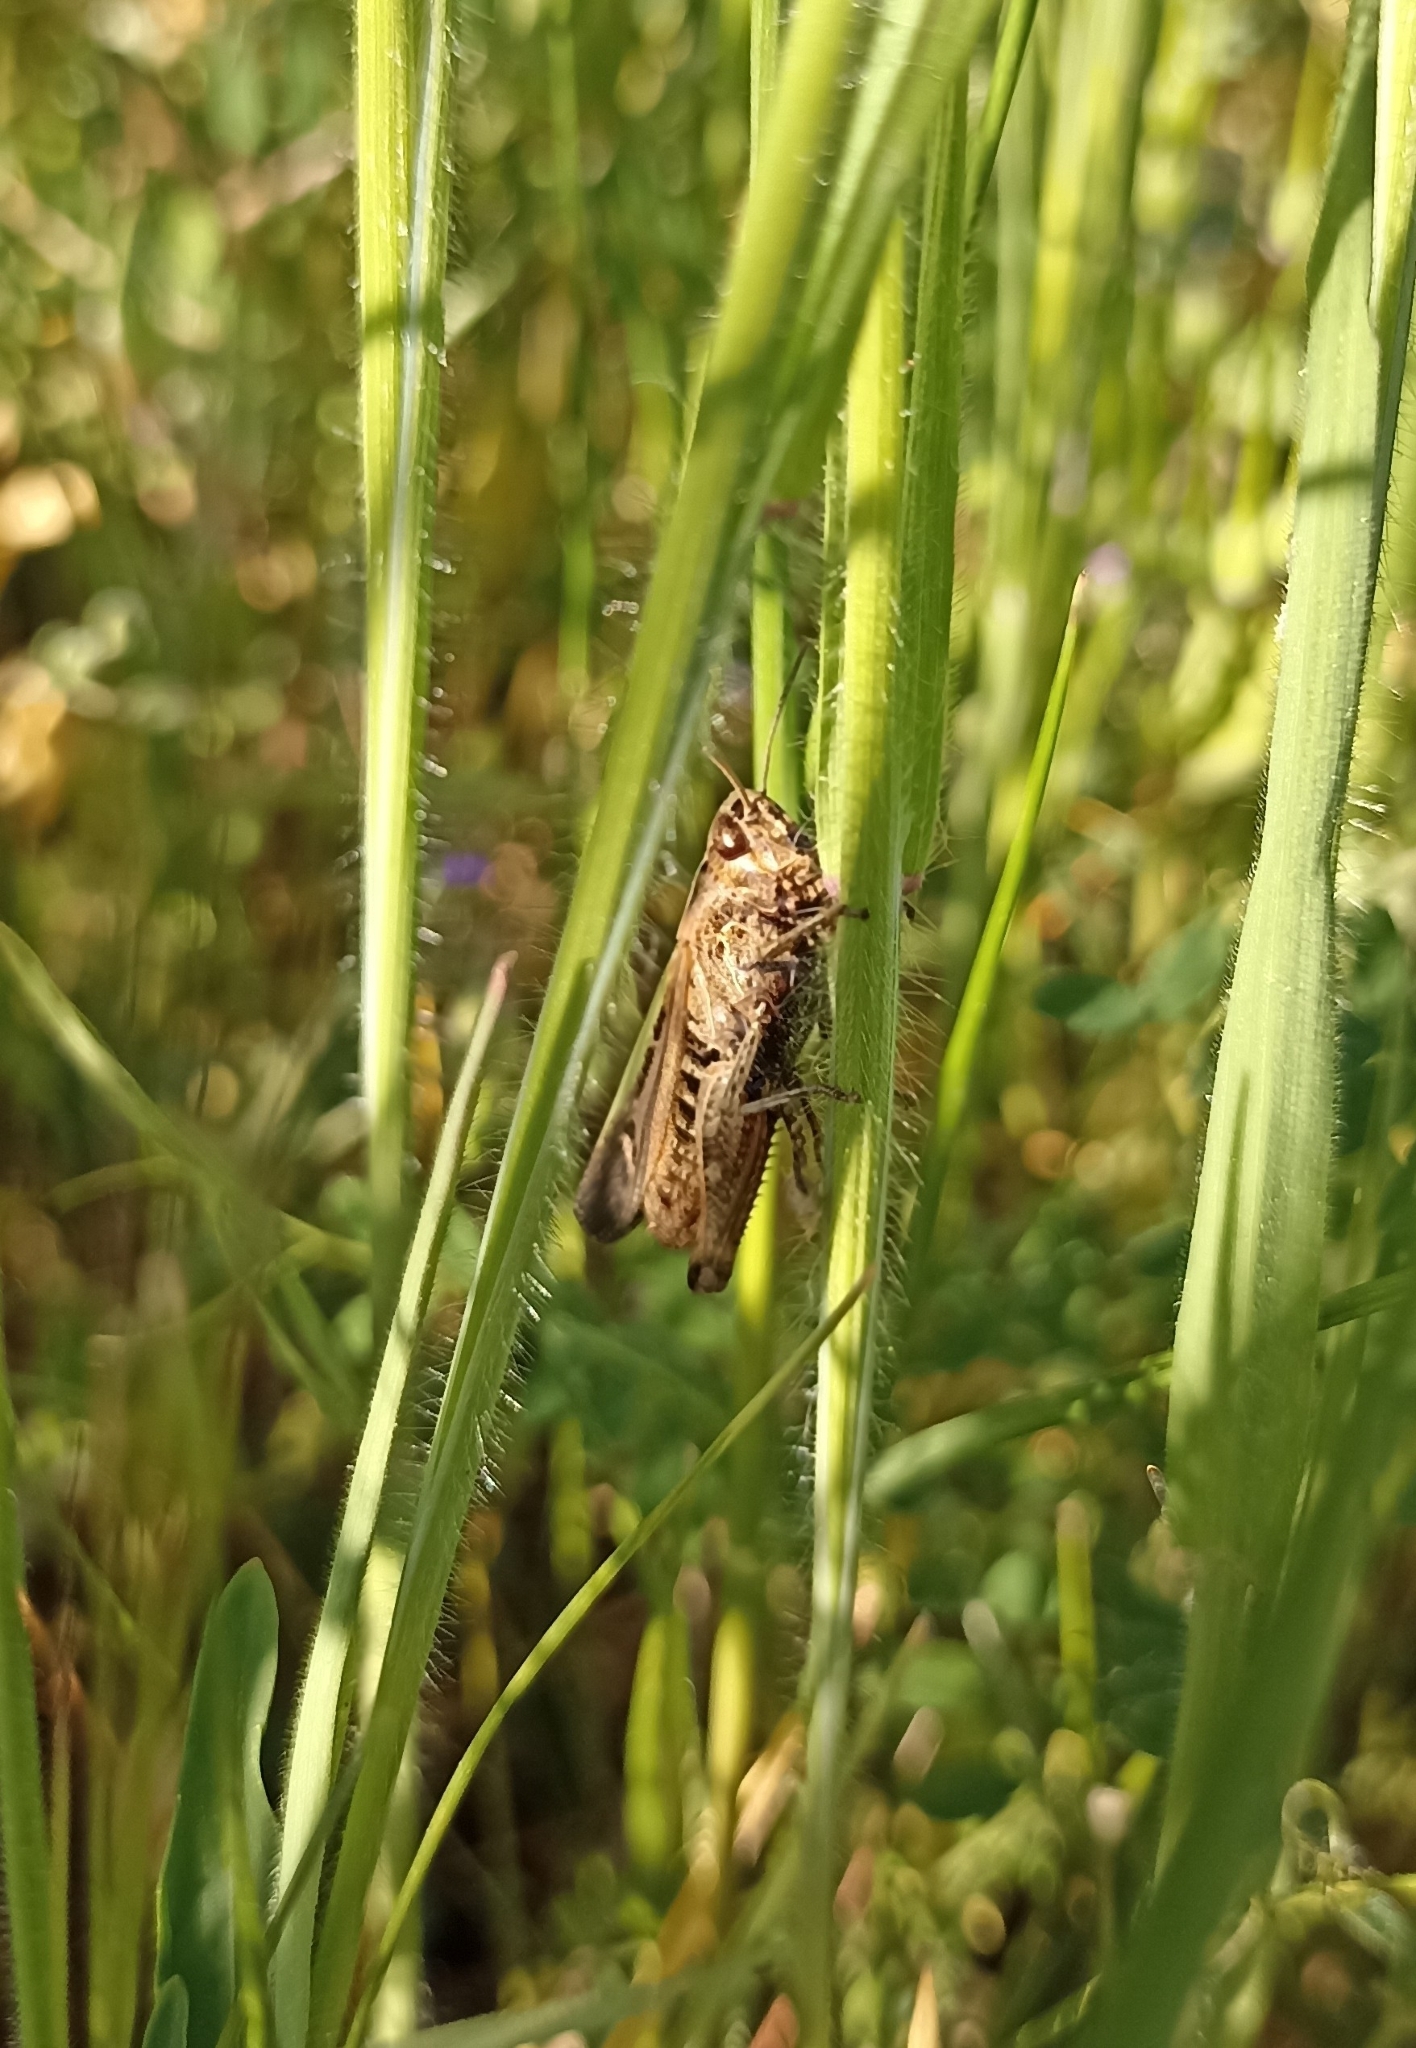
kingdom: Animalia
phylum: Arthropoda
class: Insecta
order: Orthoptera
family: Acrididae
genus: Omocestus
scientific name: Omocestus rufipes
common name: Woodland grasshopper
